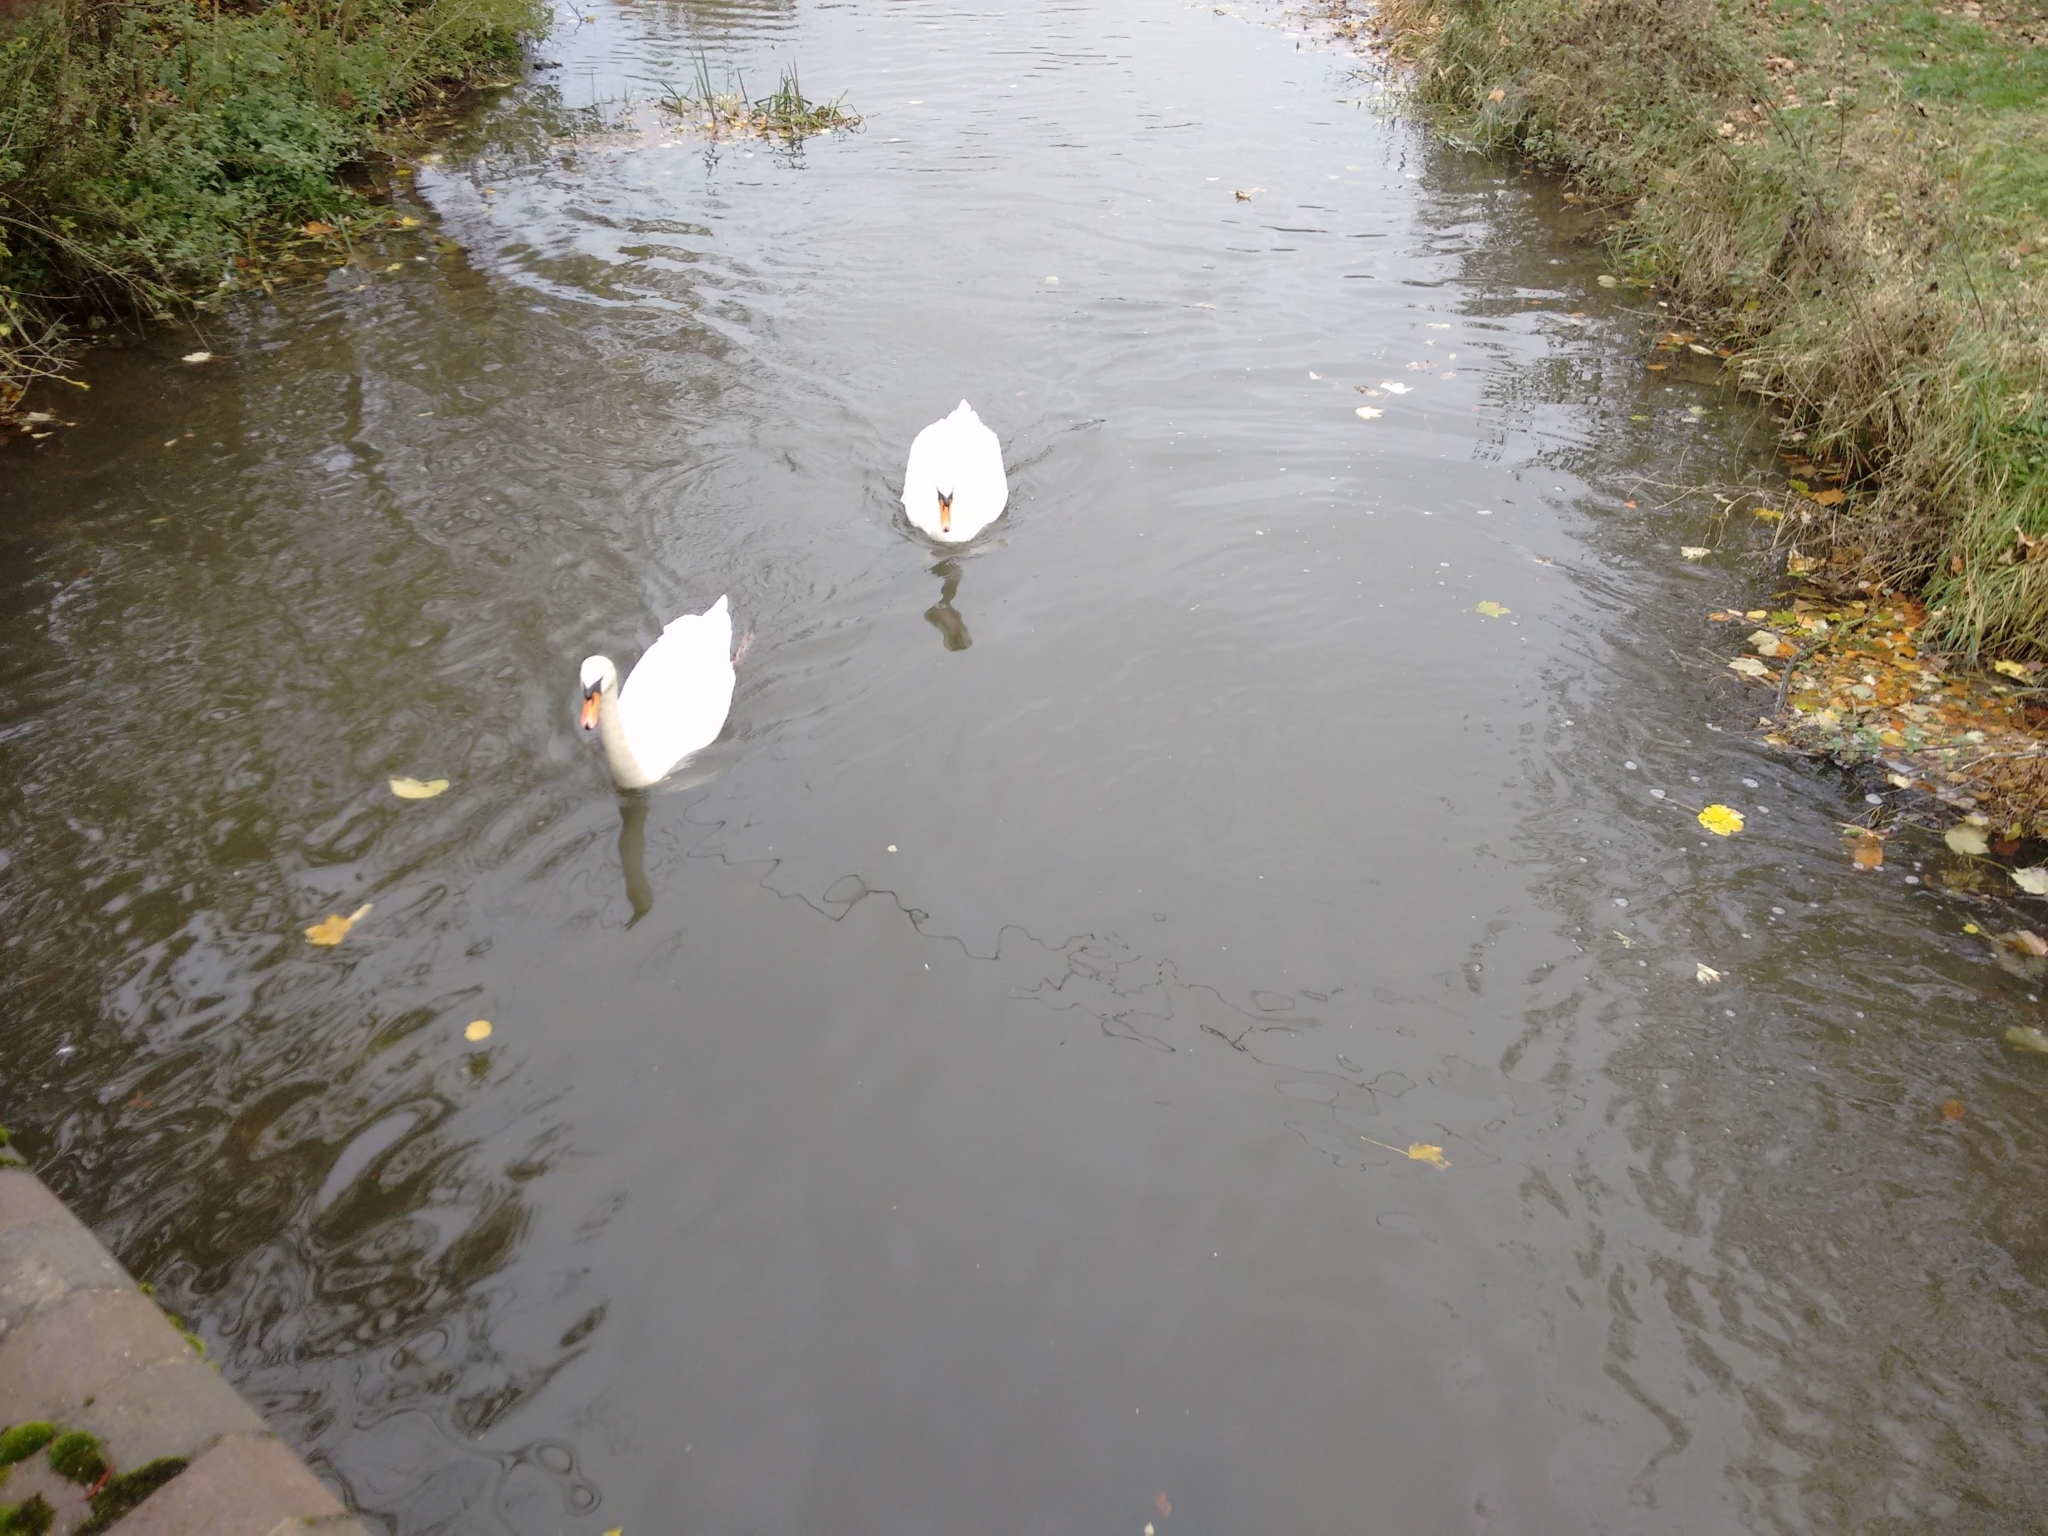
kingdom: Animalia
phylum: Chordata
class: Aves
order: Anseriformes
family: Anatidae
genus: Cygnus
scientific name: Cygnus olor
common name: Mute swan
